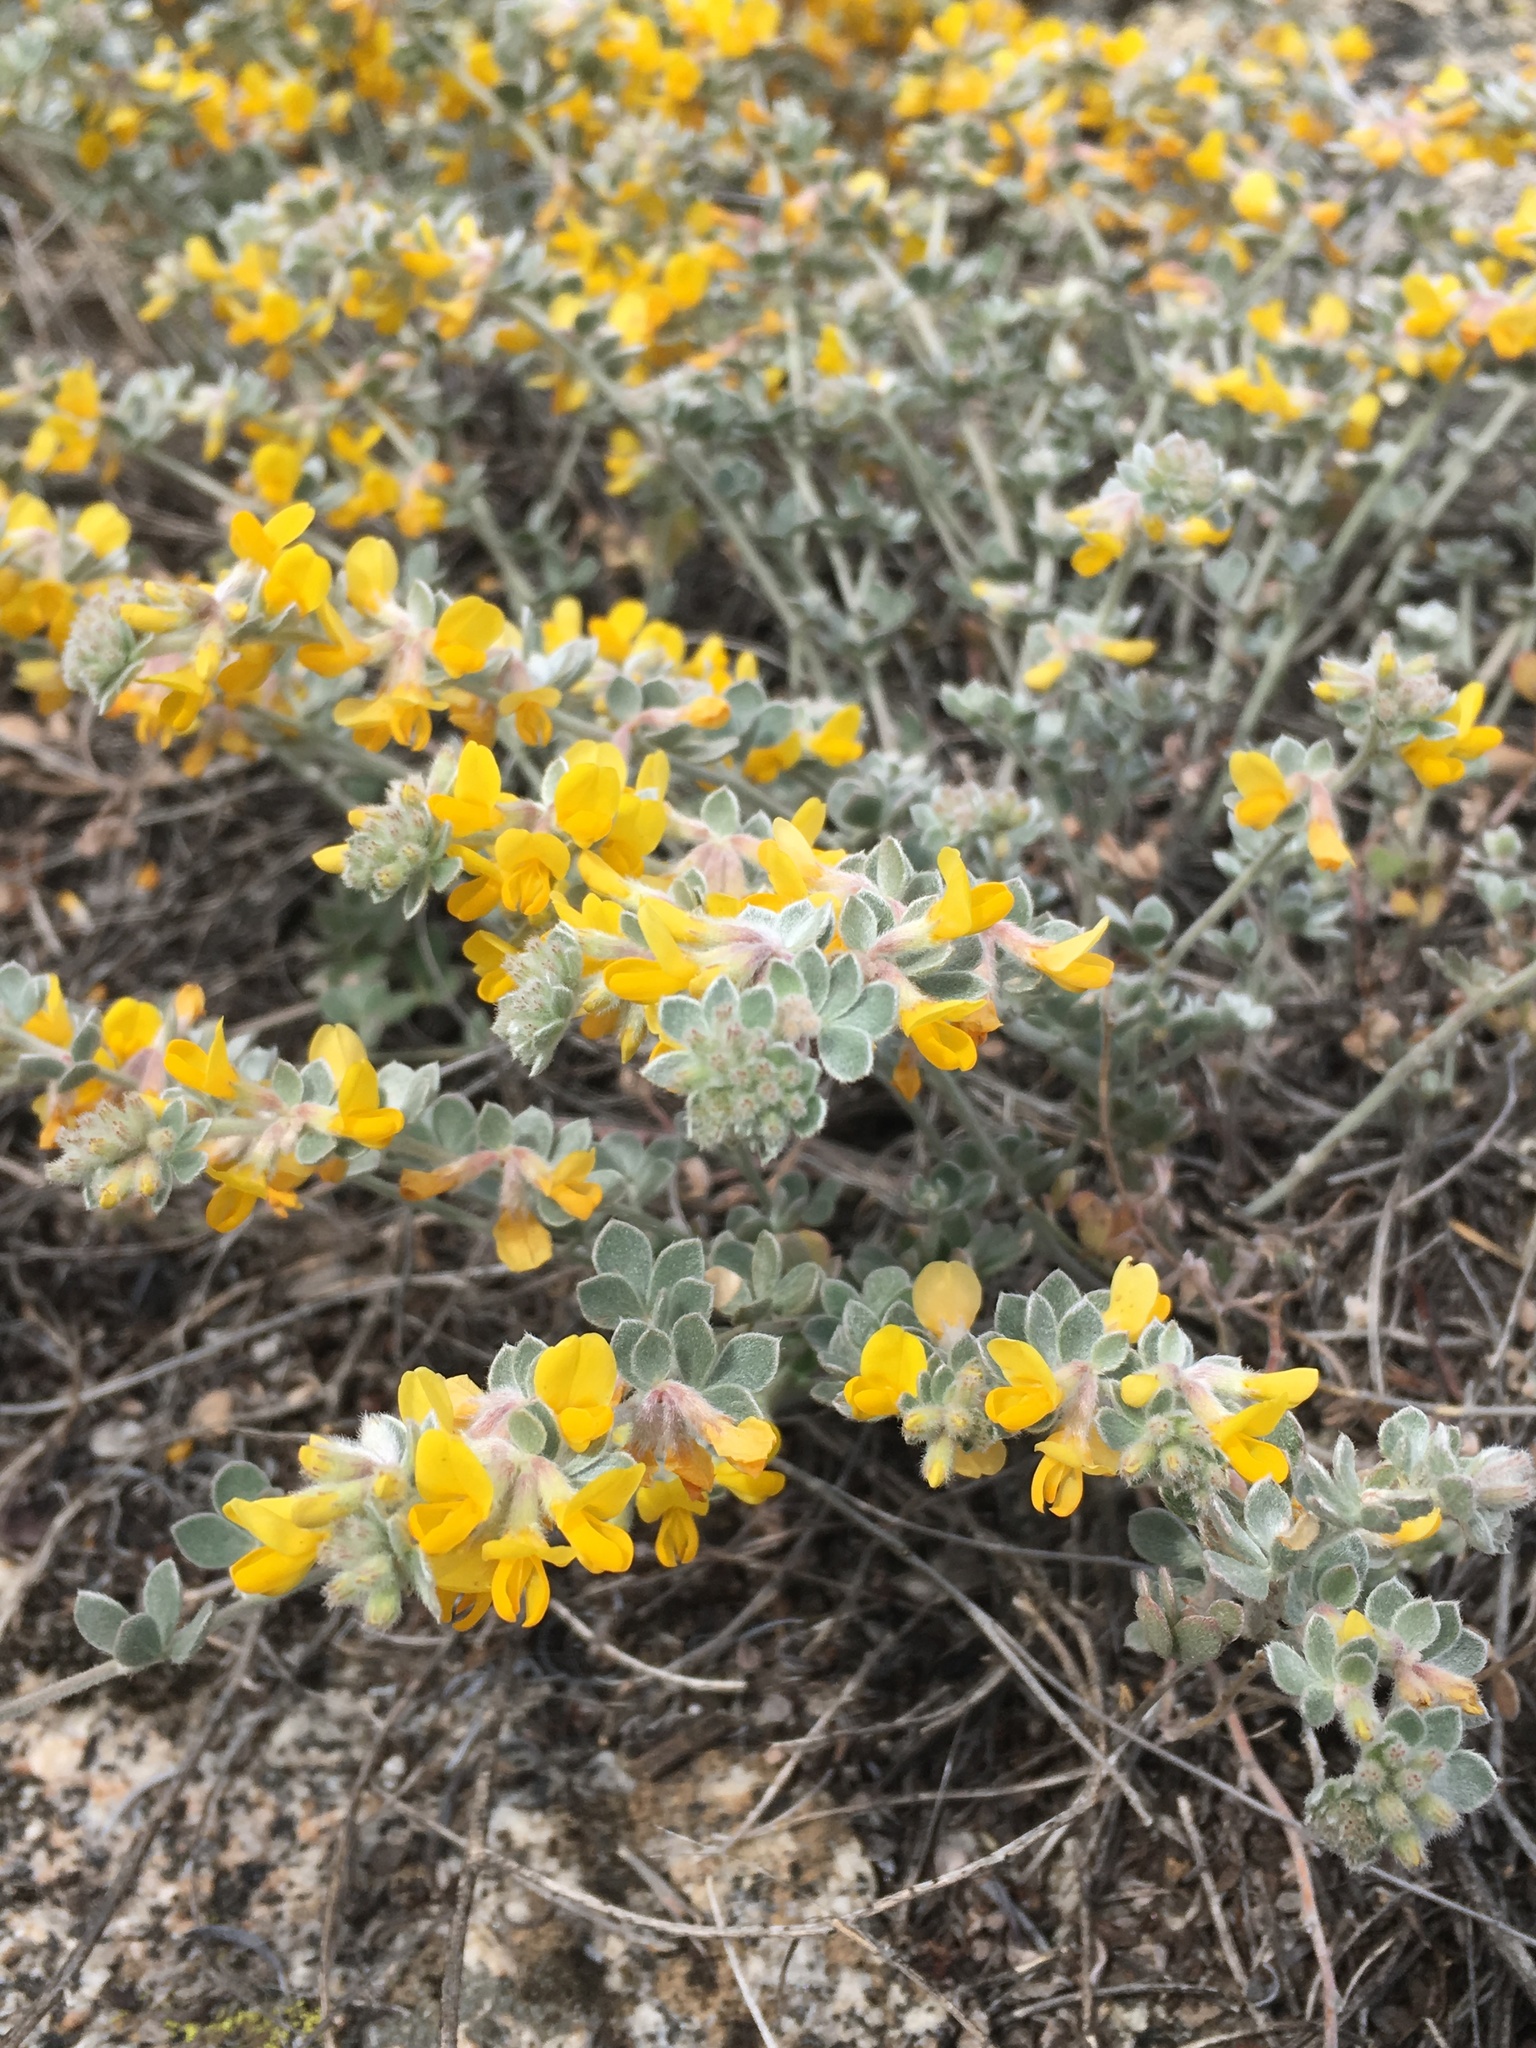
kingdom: Plantae
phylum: Tracheophyta
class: Magnoliopsida
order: Fabales
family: Fabaceae
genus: Acmispon
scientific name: Acmispon argophyllus
